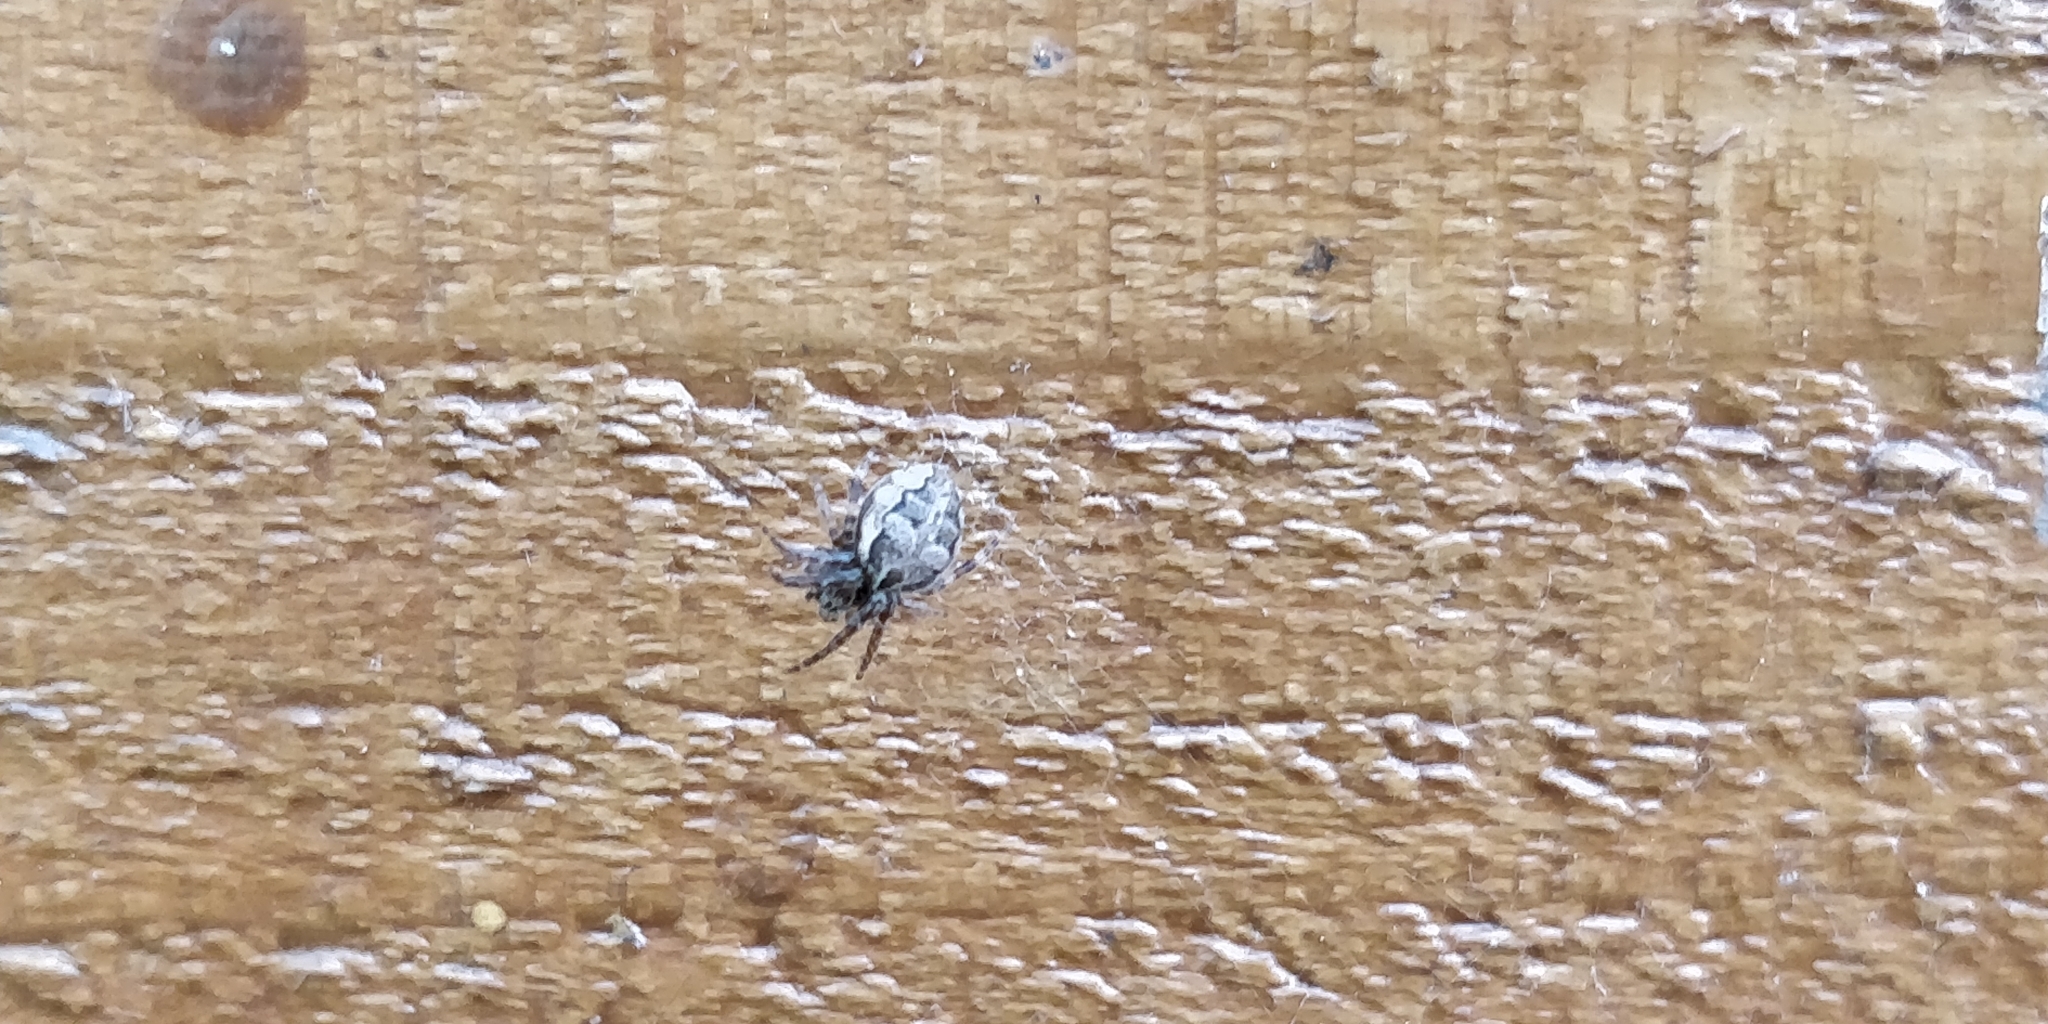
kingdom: Animalia
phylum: Arthropoda
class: Arachnida
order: Araneae
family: Araneidae
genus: Larinioides
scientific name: Larinioides sclopetarius
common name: Bridge orbweaver
